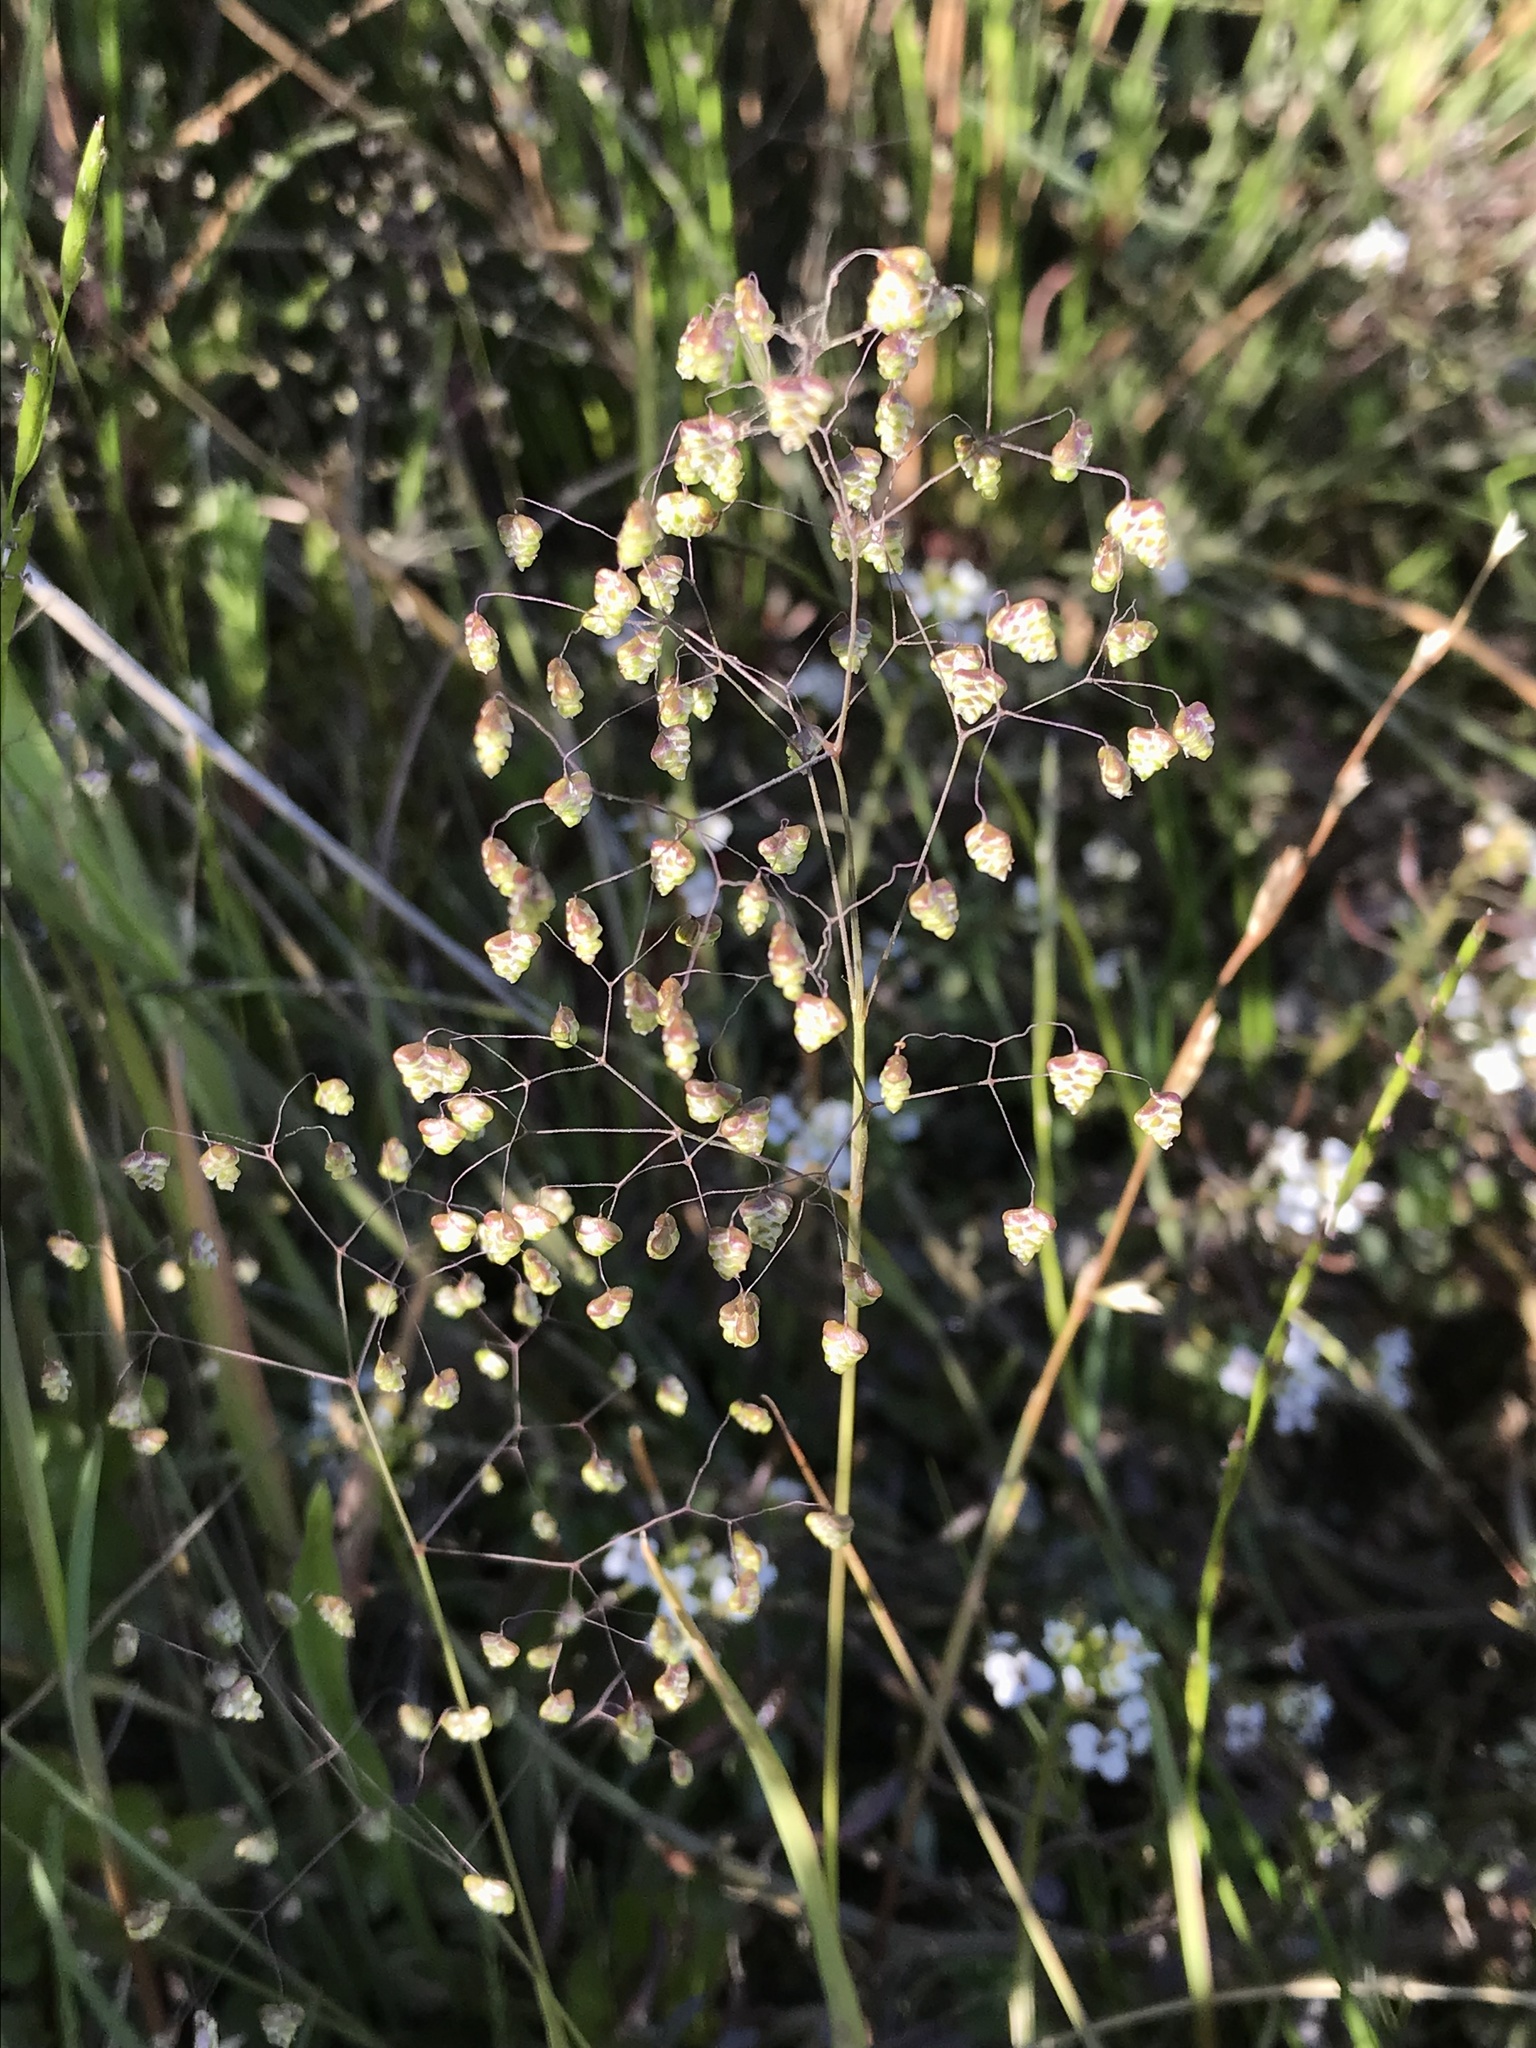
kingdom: Plantae
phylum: Tracheophyta
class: Liliopsida
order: Poales
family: Poaceae
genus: Briza
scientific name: Briza minor
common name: Lesser quaking-grass
